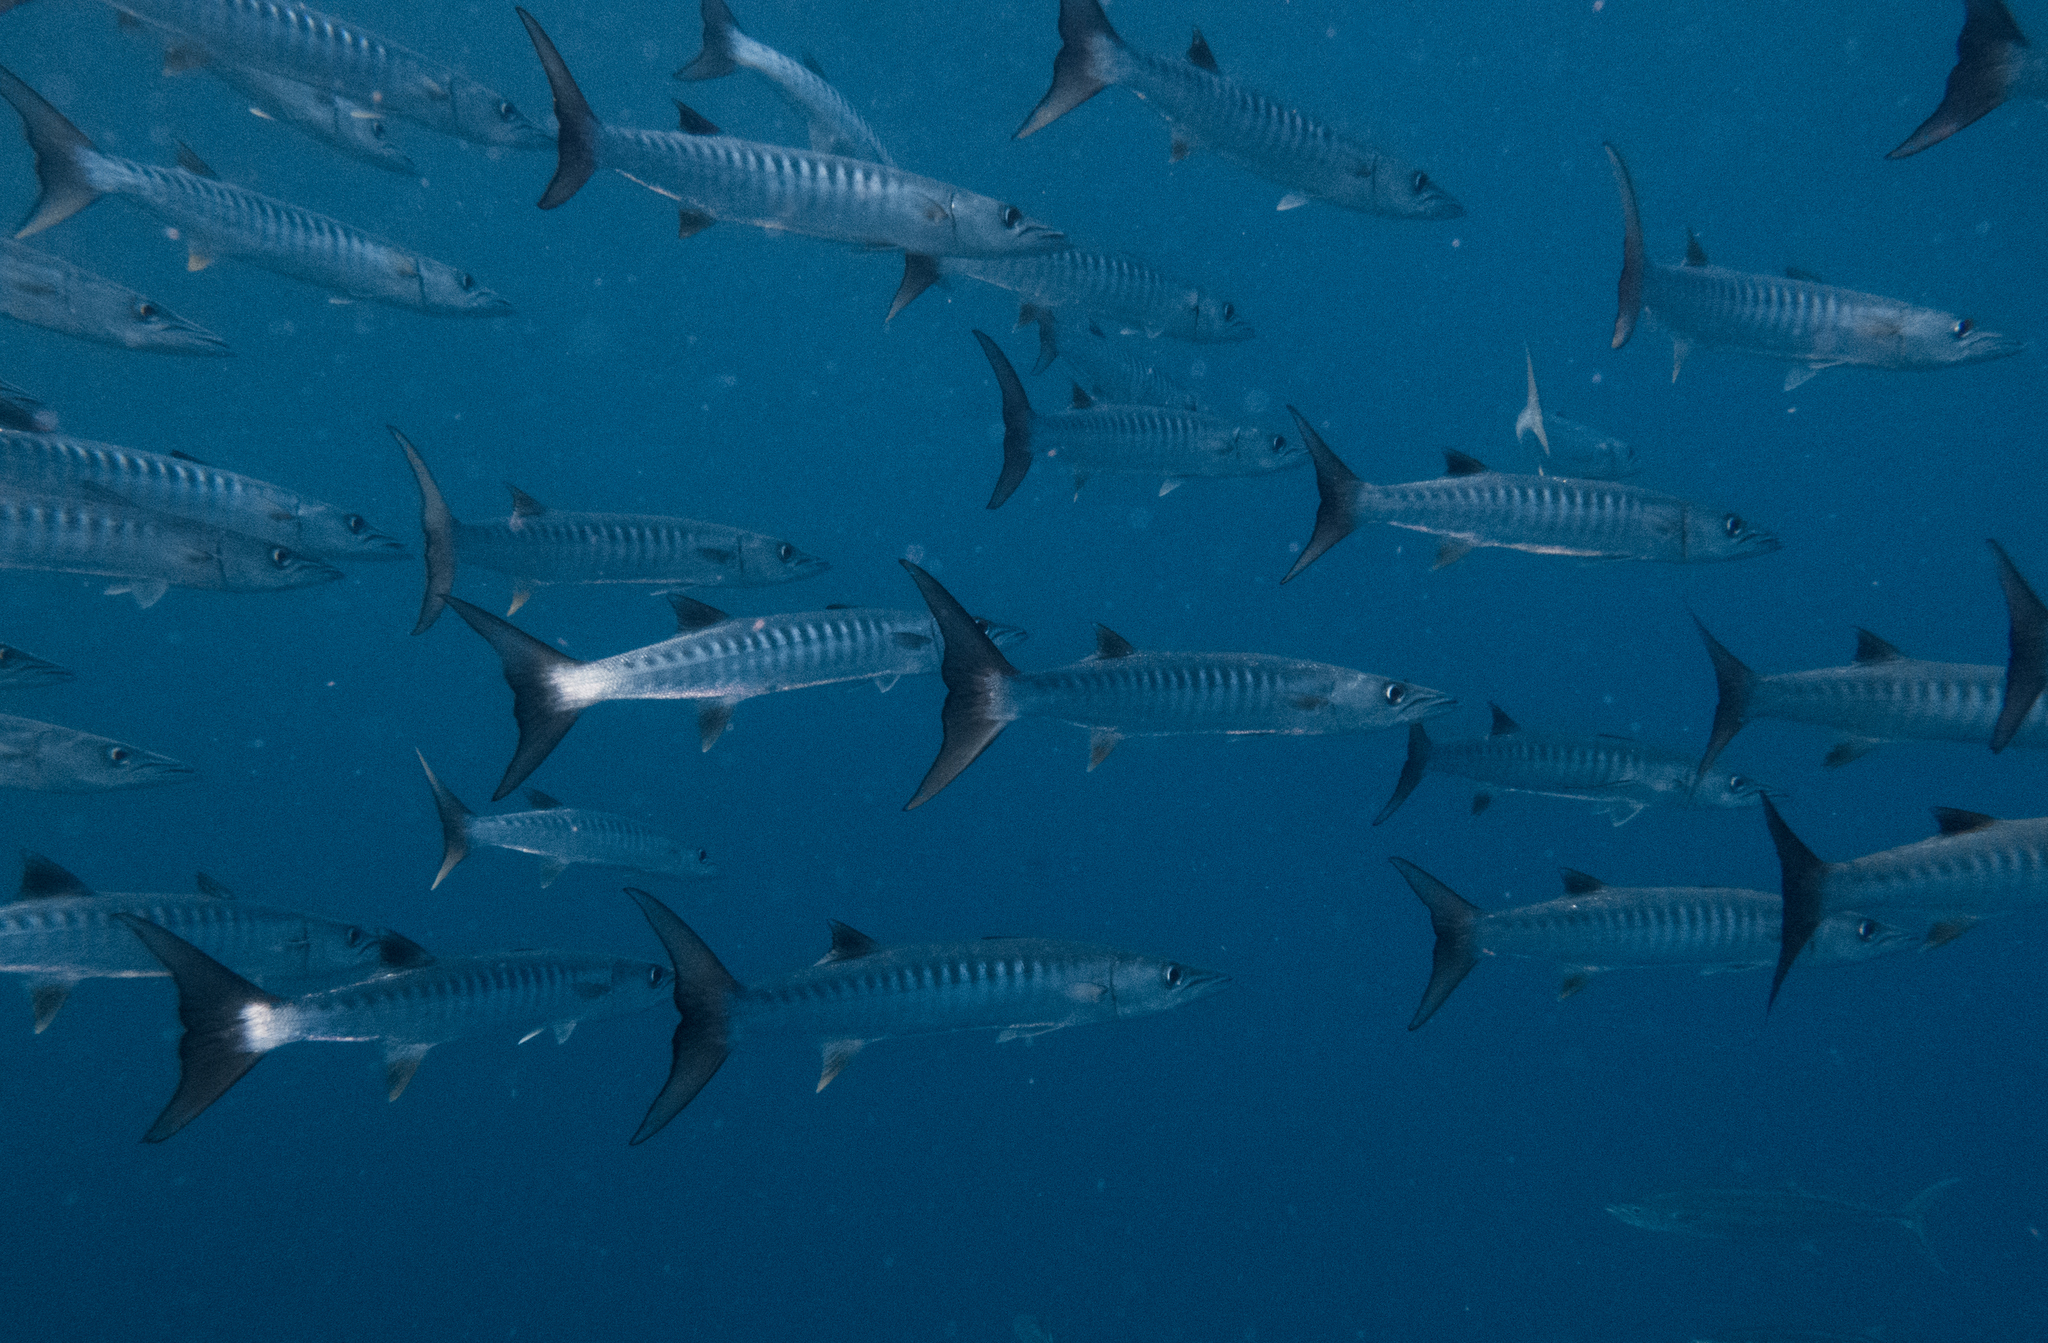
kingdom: Animalia
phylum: Chordata
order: Perciformes
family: Sphyraenidae
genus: Sphyraena
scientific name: Sphyraena qenie
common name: Blackfin barracuda
